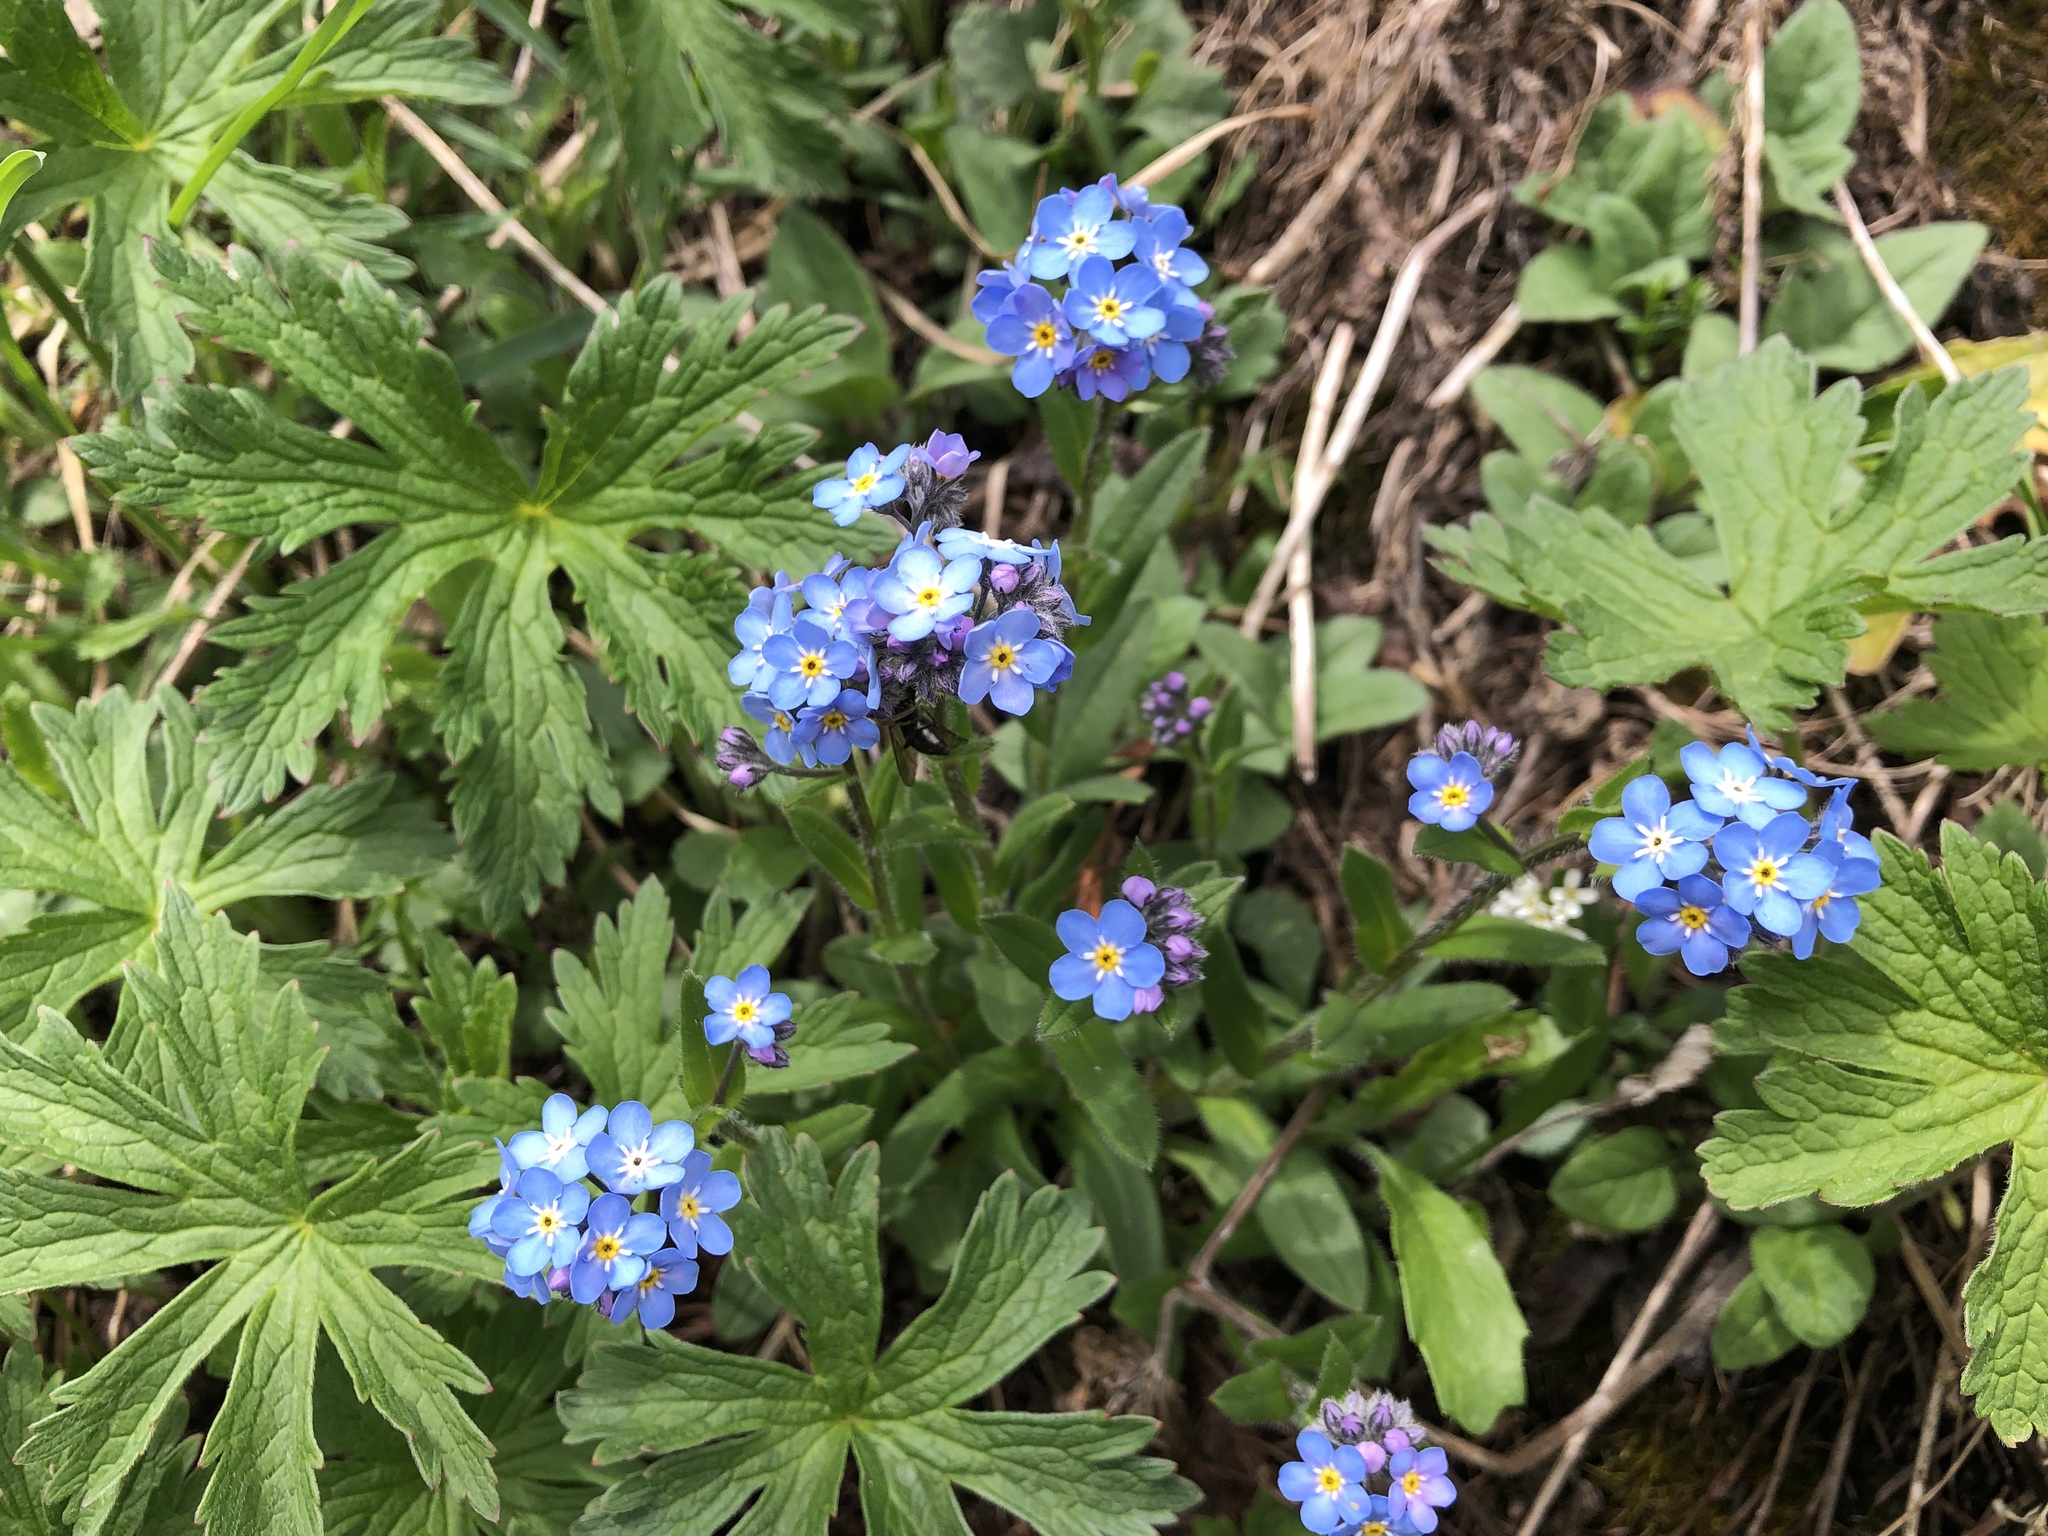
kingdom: Plantae
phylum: Tracheophyta
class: Magnoliopsida
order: Boraginales
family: Boraginaceae
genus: Myosotis
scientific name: Myosotis alpestris
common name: Alpine forget-me-not
